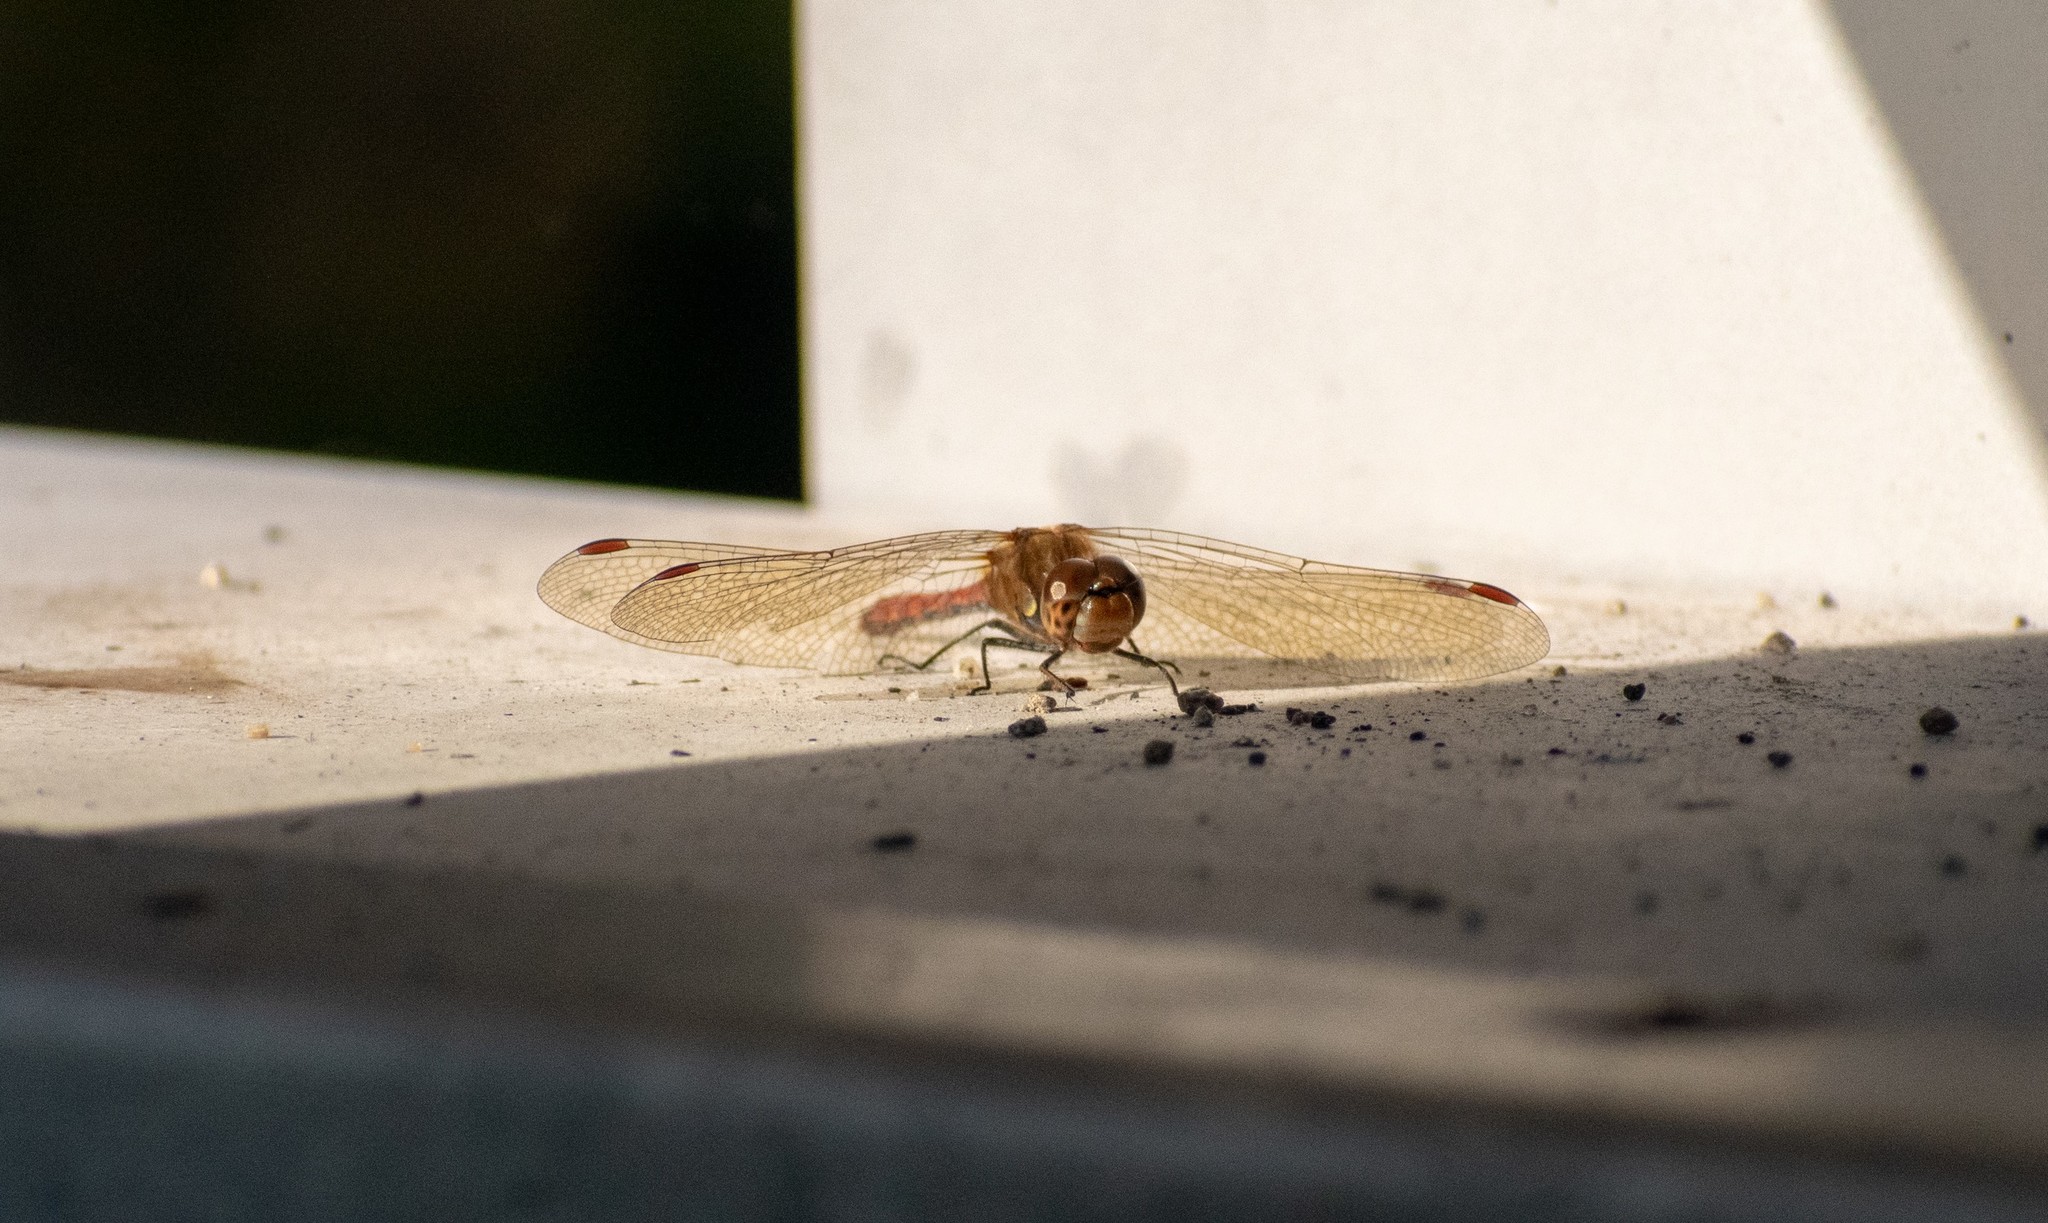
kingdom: Animalia
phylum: Arthropoda
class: Insecta
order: Odonata
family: Libellulidae
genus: Sympetrum
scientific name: Sympetrum striolatum
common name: Common darter
